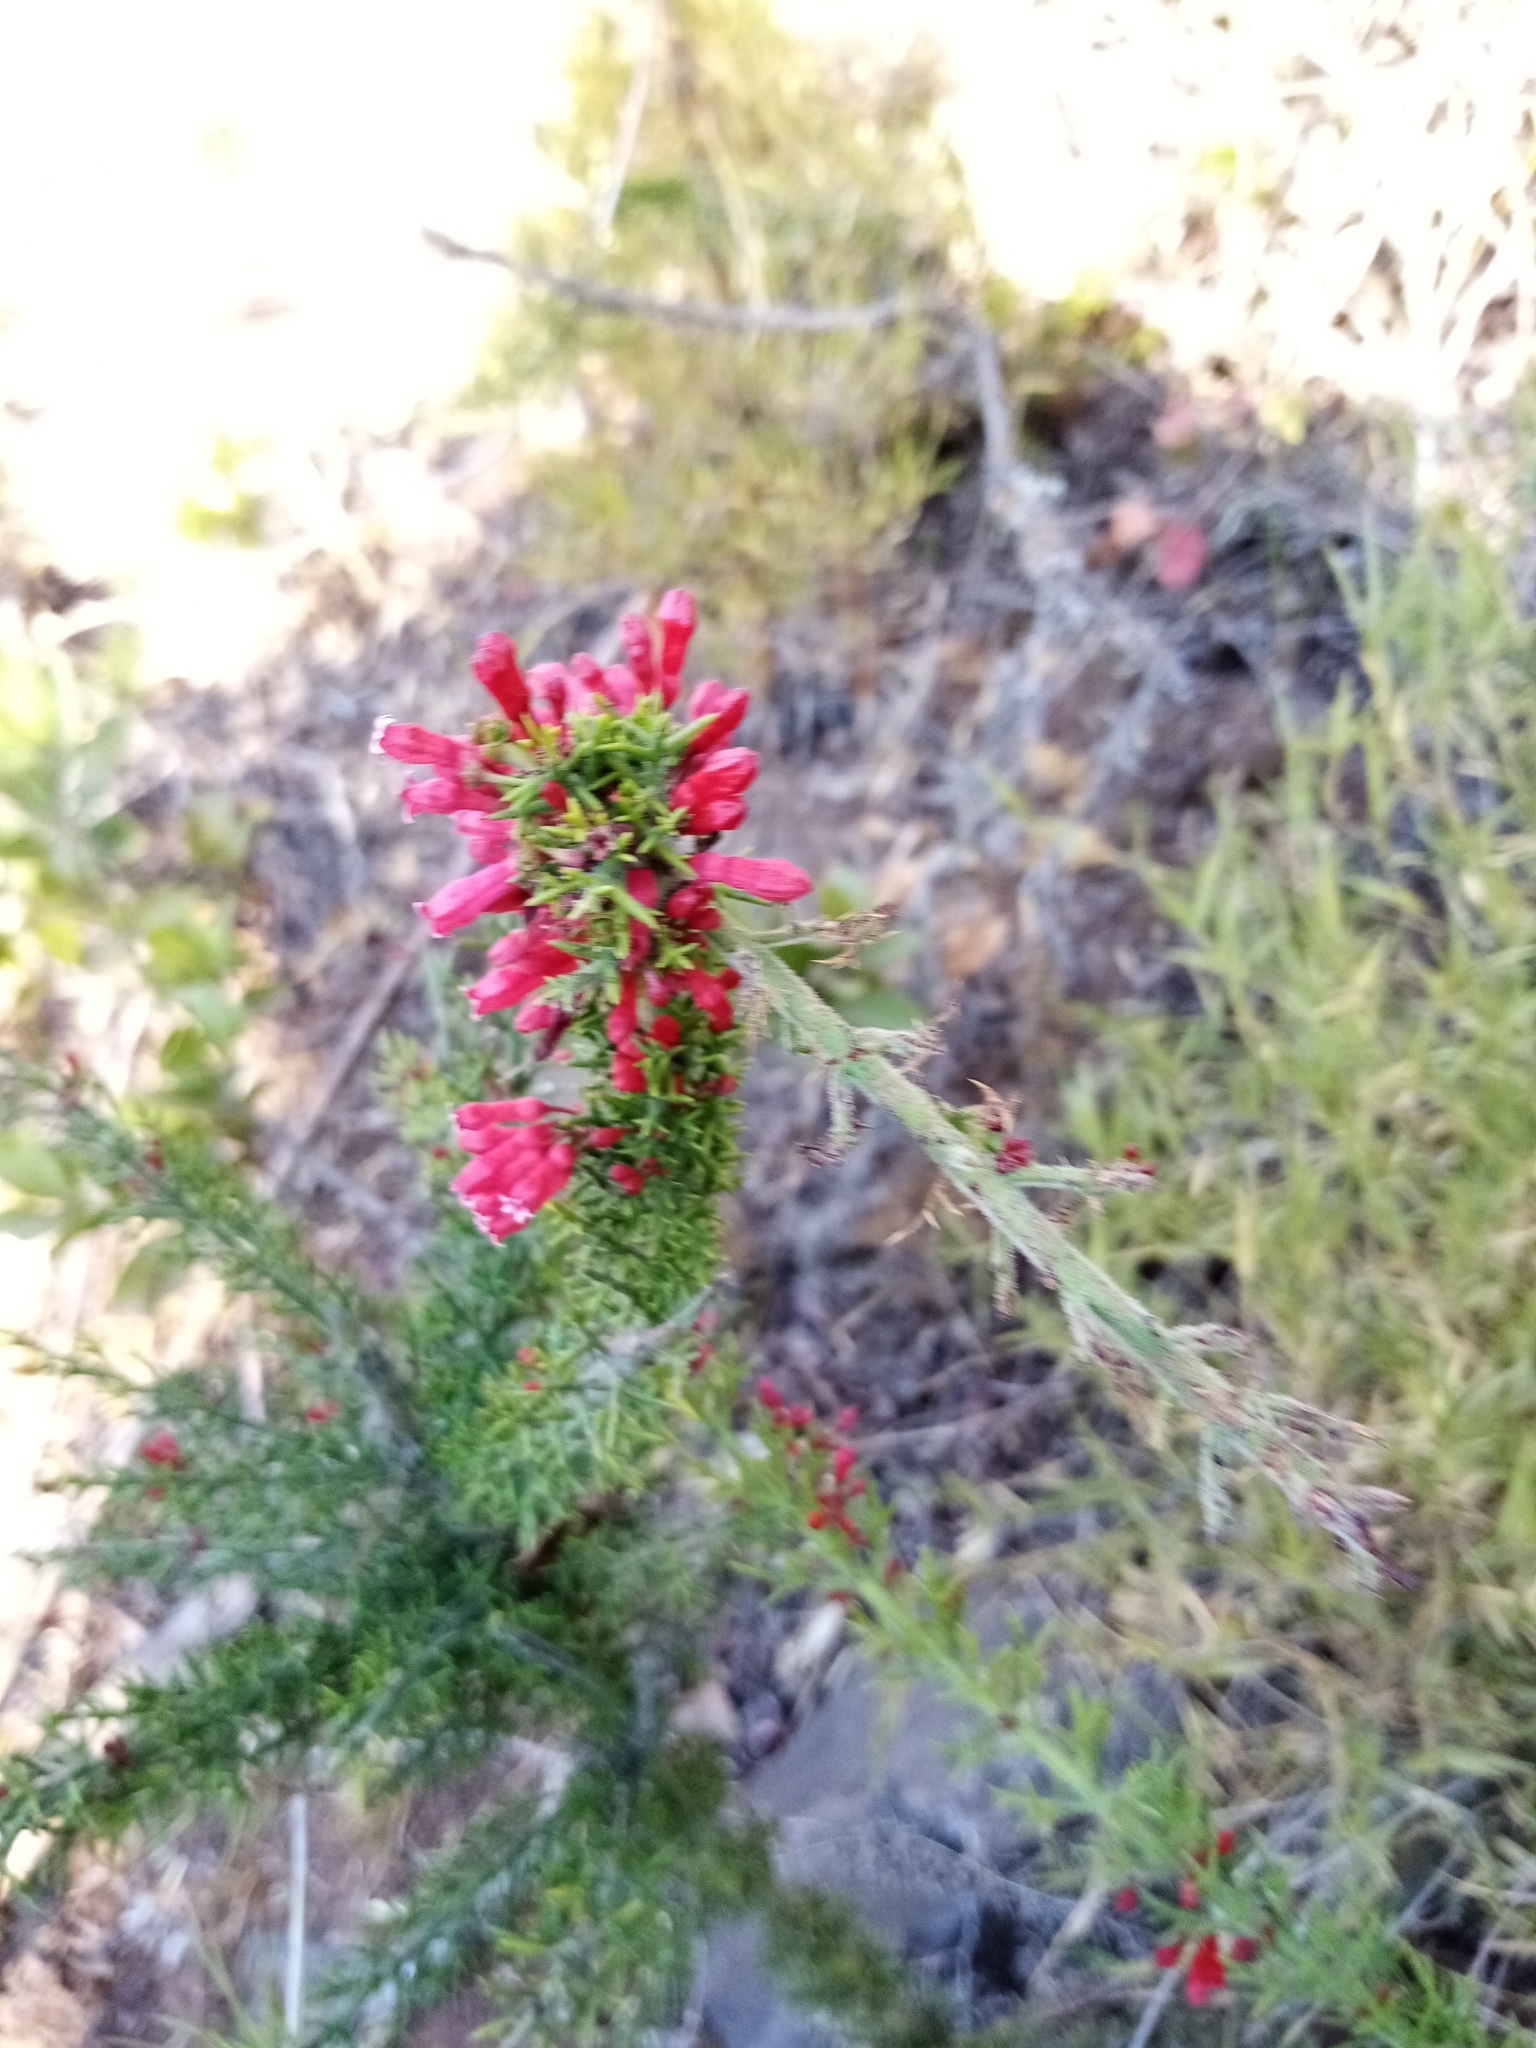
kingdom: Plantae
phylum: Tracheophyta
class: Magnoliopsida
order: Rosales
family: Rhamnaceae
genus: Colletia
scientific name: Colletia ulicina
